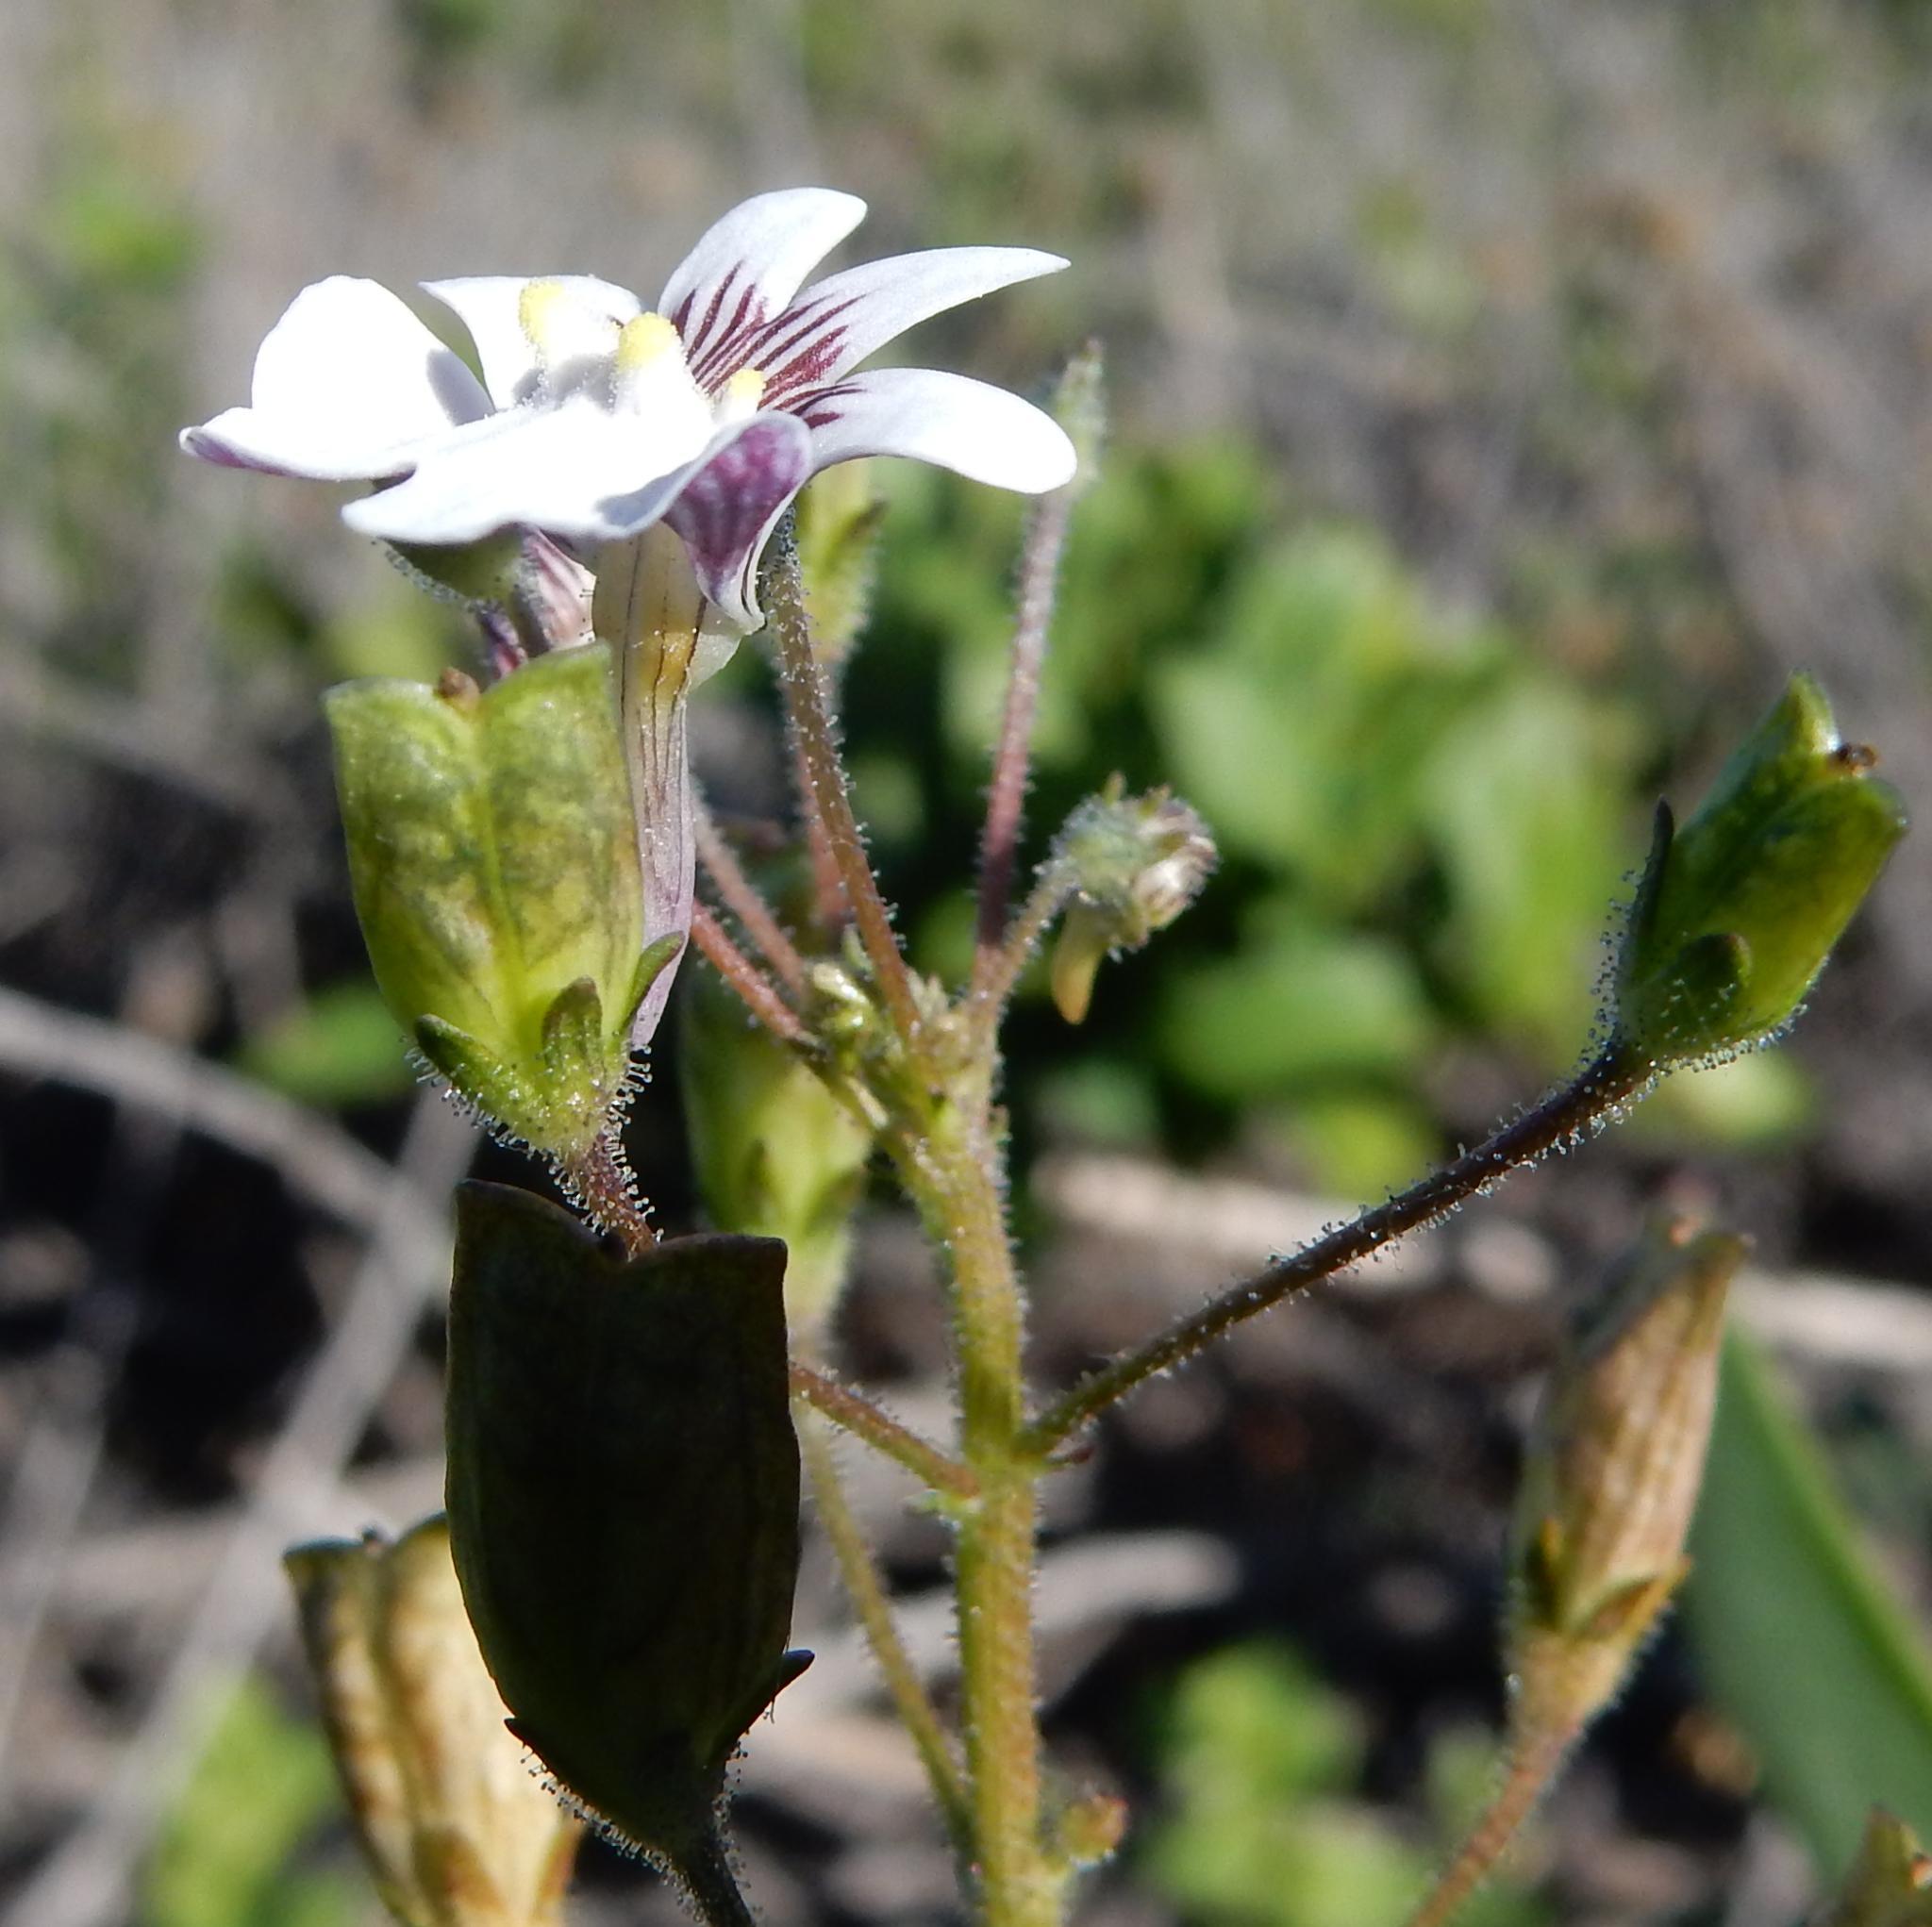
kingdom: Plantae
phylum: Tracheophyta
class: Magnoliopsida
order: Lamiales
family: Scrophulariaceae
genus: Nemesia
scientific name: Nemesia affinis
